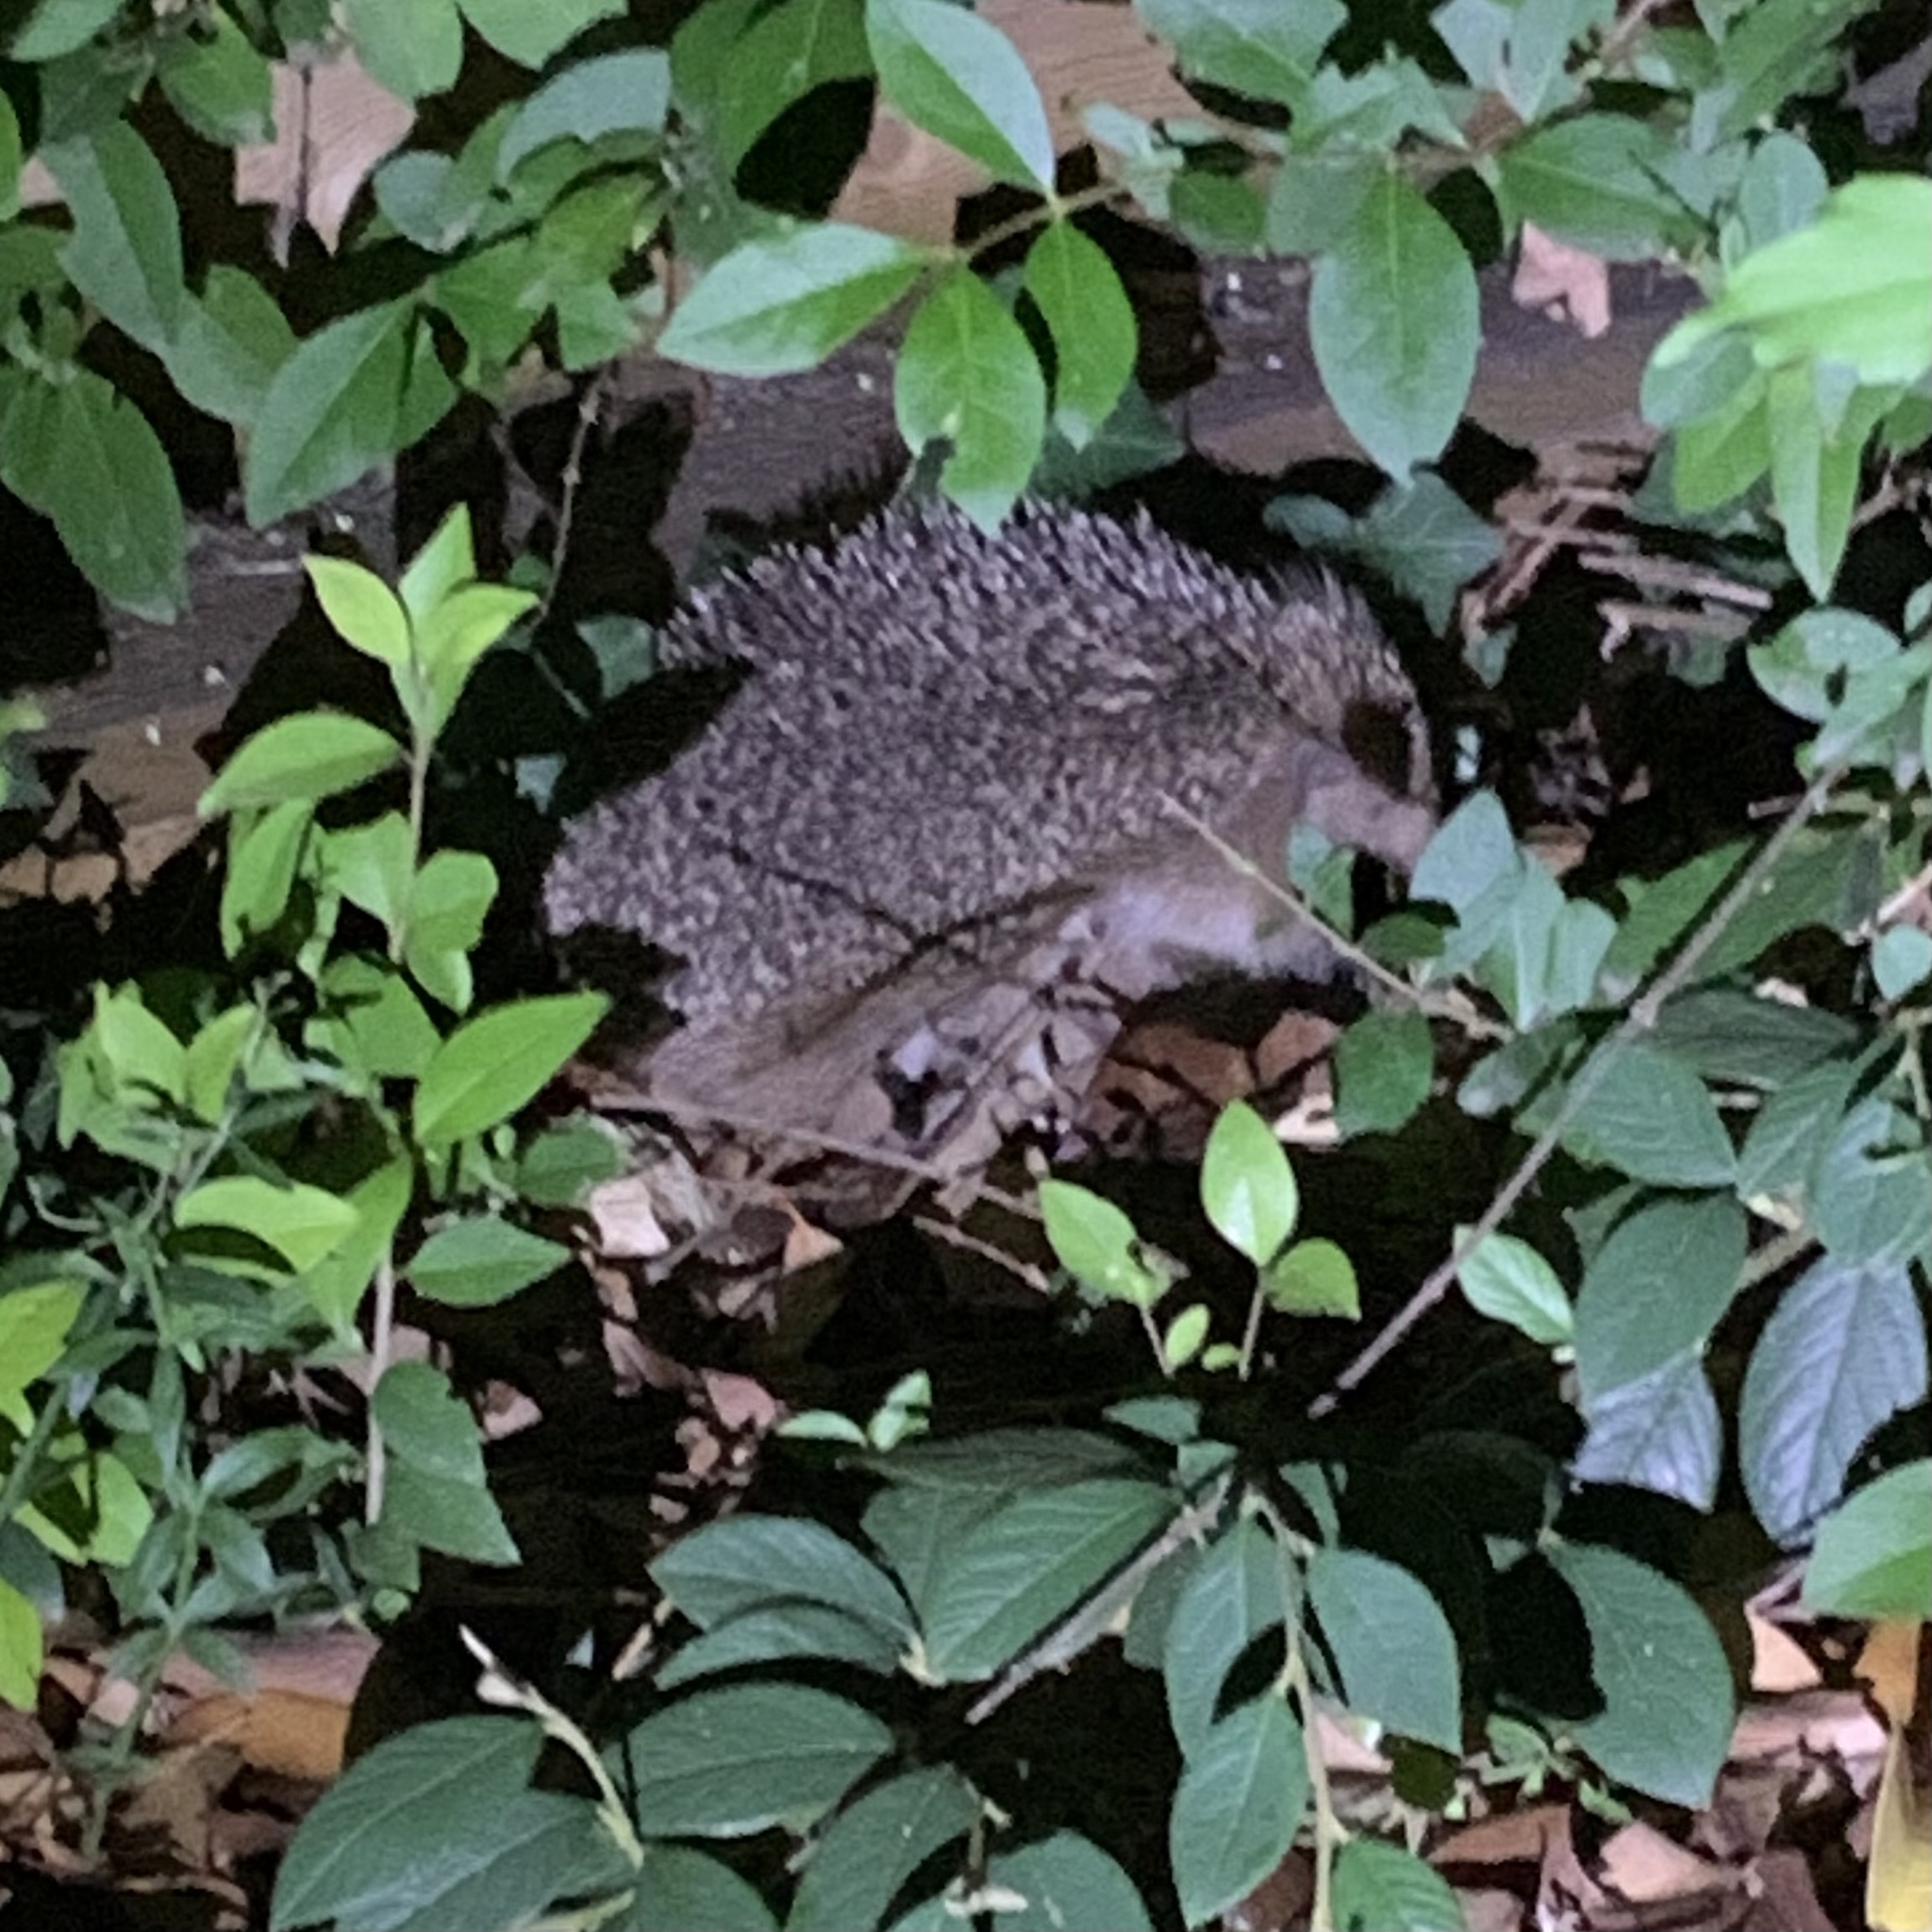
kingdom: Animalia
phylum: Chordata
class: Mammalia
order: Erinaceomorpha
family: Erinaceidae
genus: Erinaceus
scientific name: Erinaceus europaeus
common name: West european hedgehog
